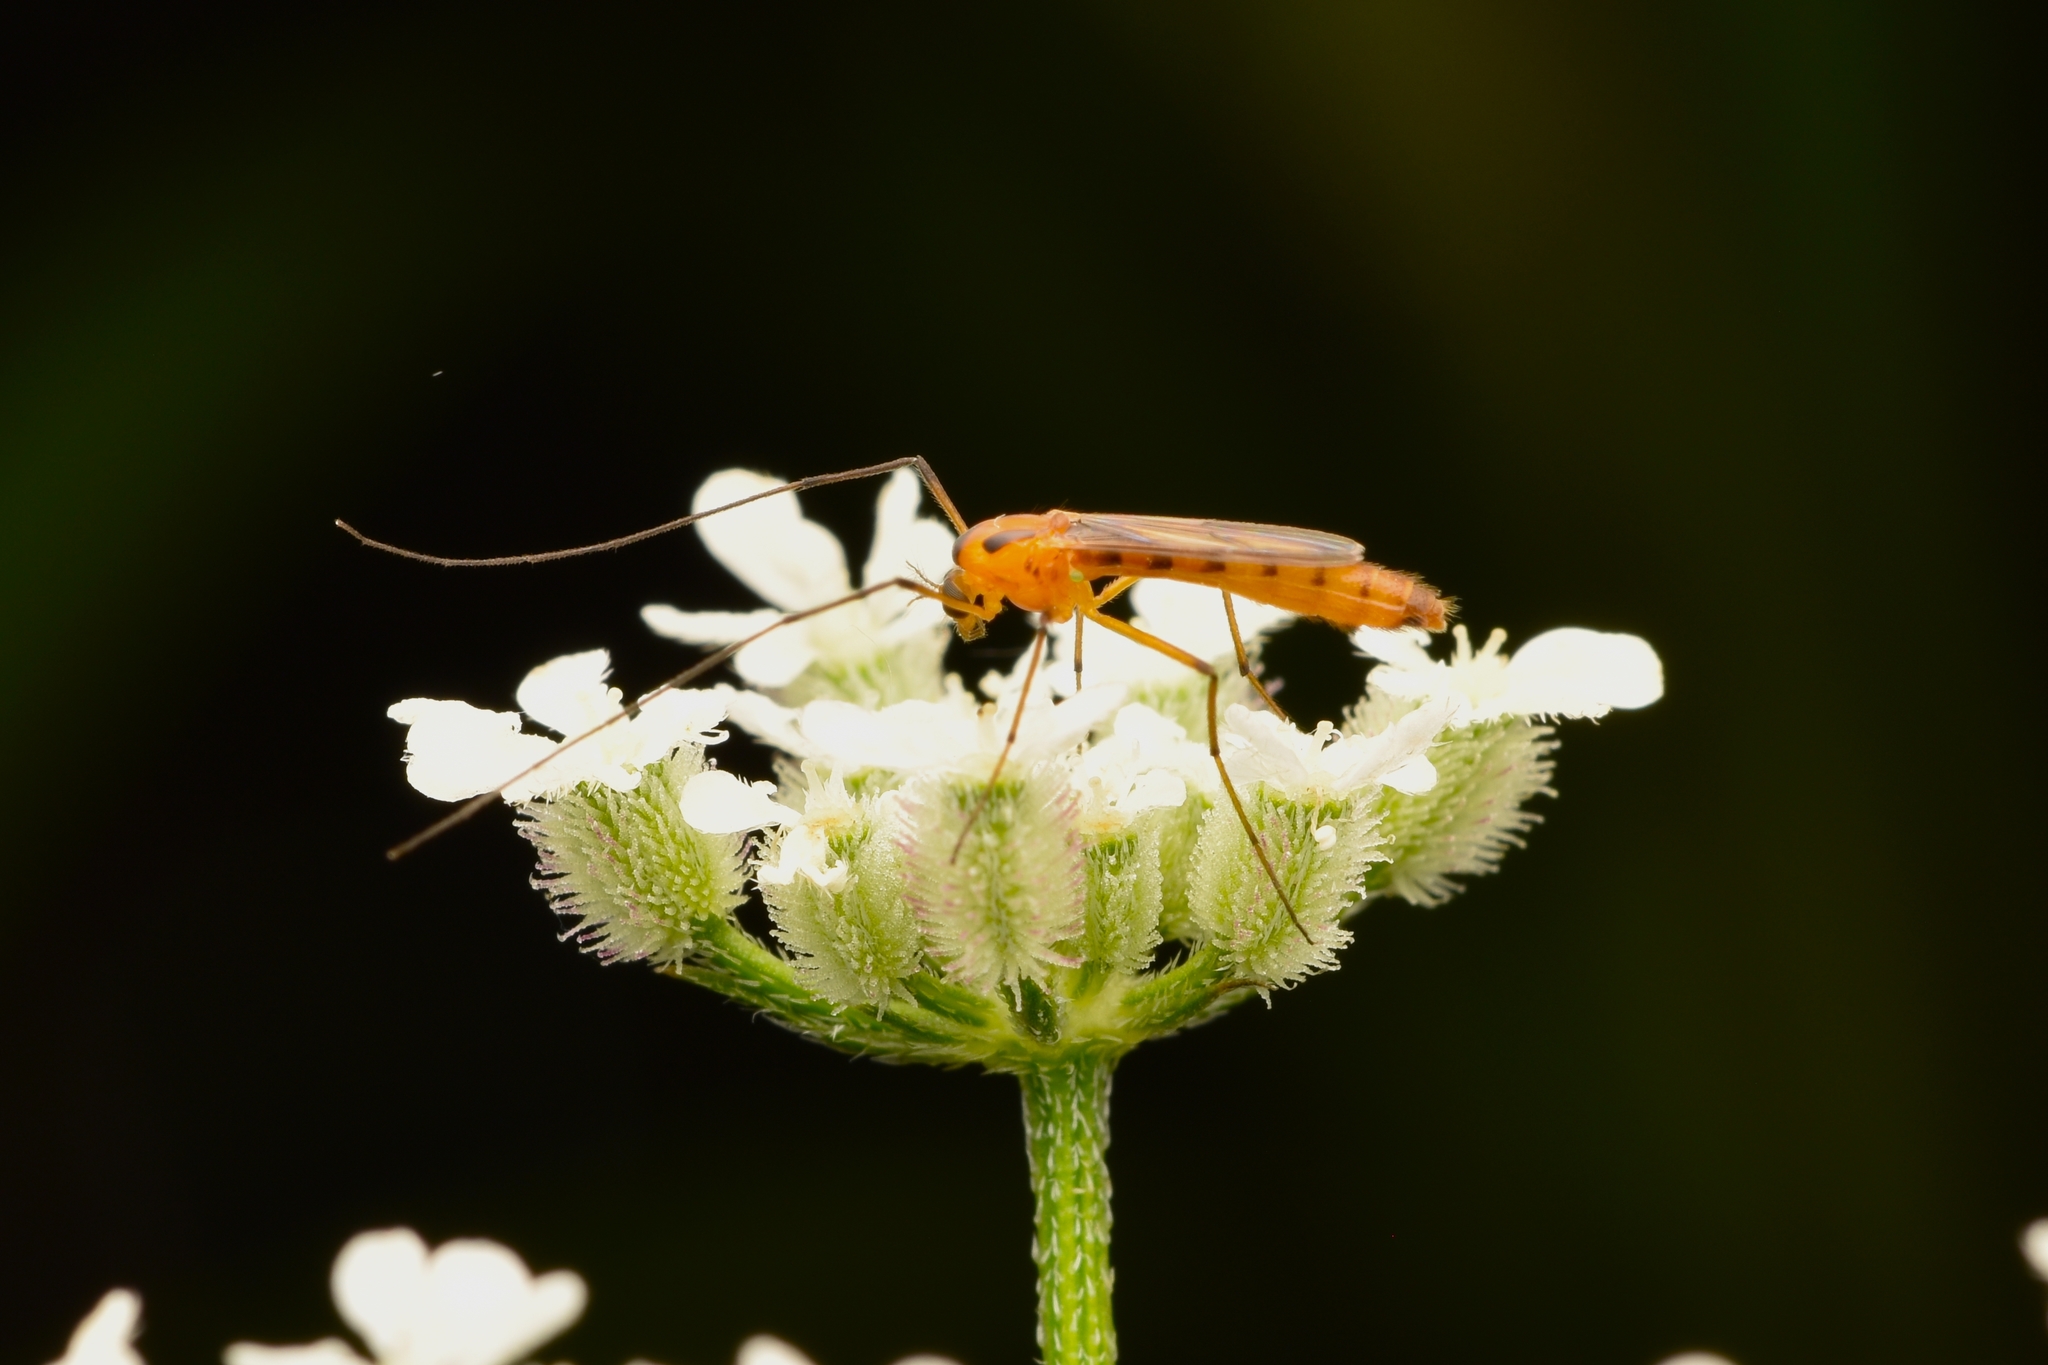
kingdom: Animalia
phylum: Arthropoda
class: Insecta
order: Diptera
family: Chironomidae
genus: Axarus
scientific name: Axarus
